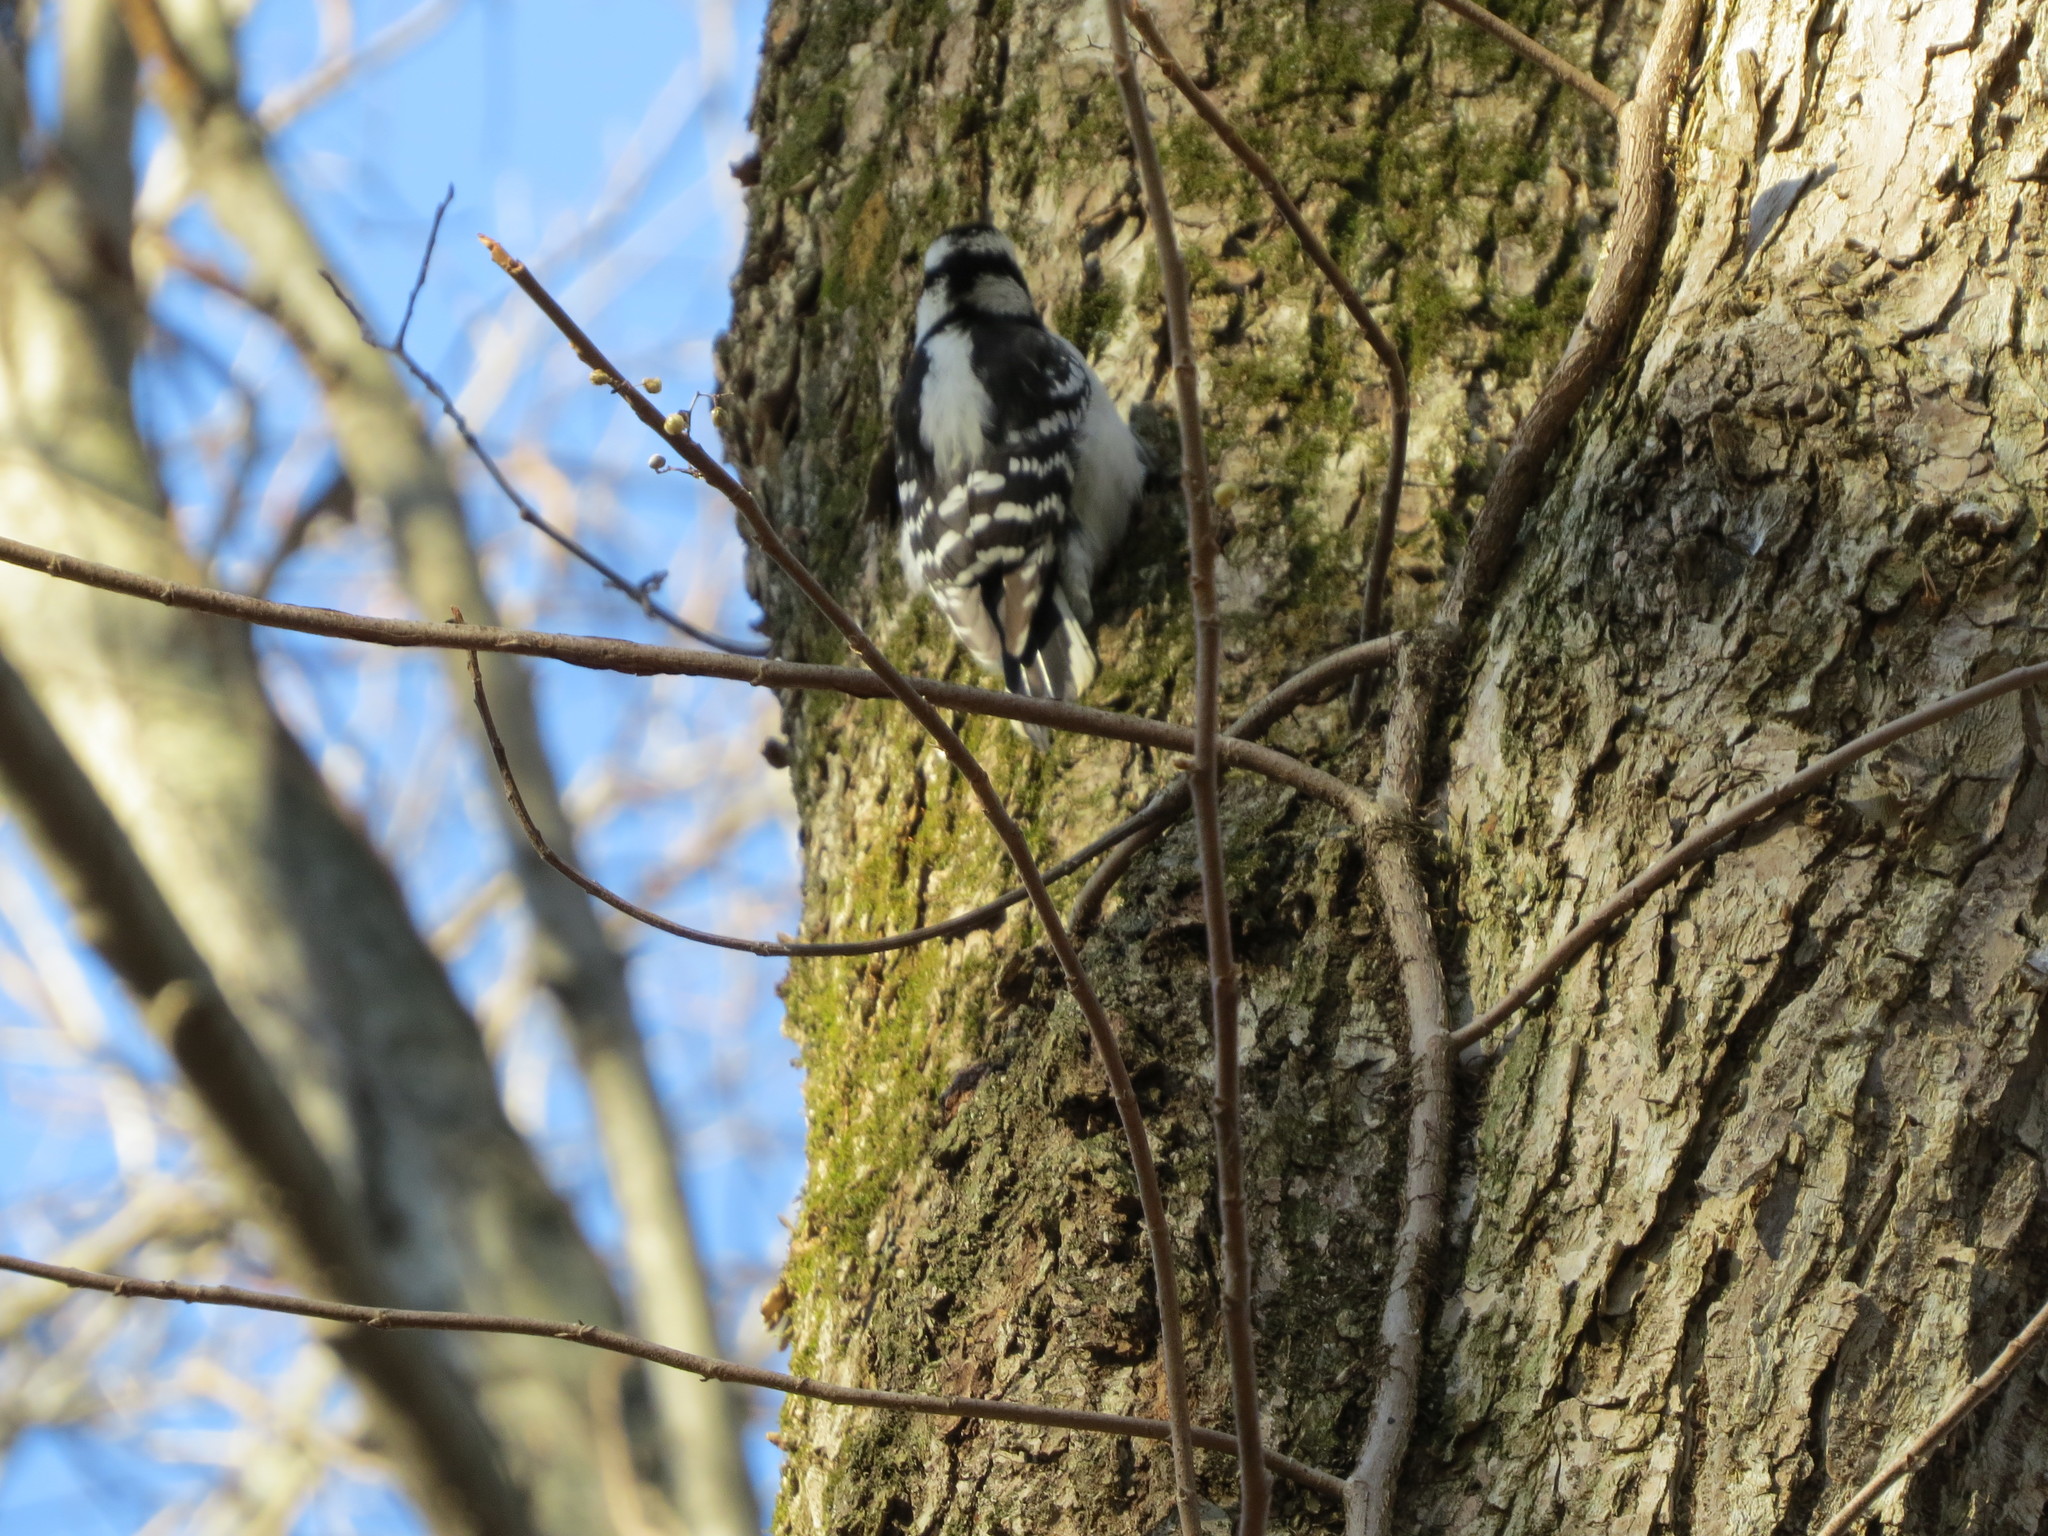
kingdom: Animalia
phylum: Chordata
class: Aves
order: Piciformes
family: Picidae
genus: Dryobates
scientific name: Dryobates pubescens
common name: Downy woodpecker
